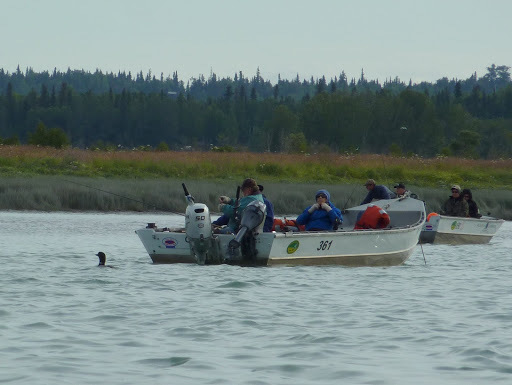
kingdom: Animalia
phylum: Chordata
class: Aves
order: Gaviiformes
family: Gaviidae
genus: Gavia
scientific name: Gavia immer
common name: Common loon
